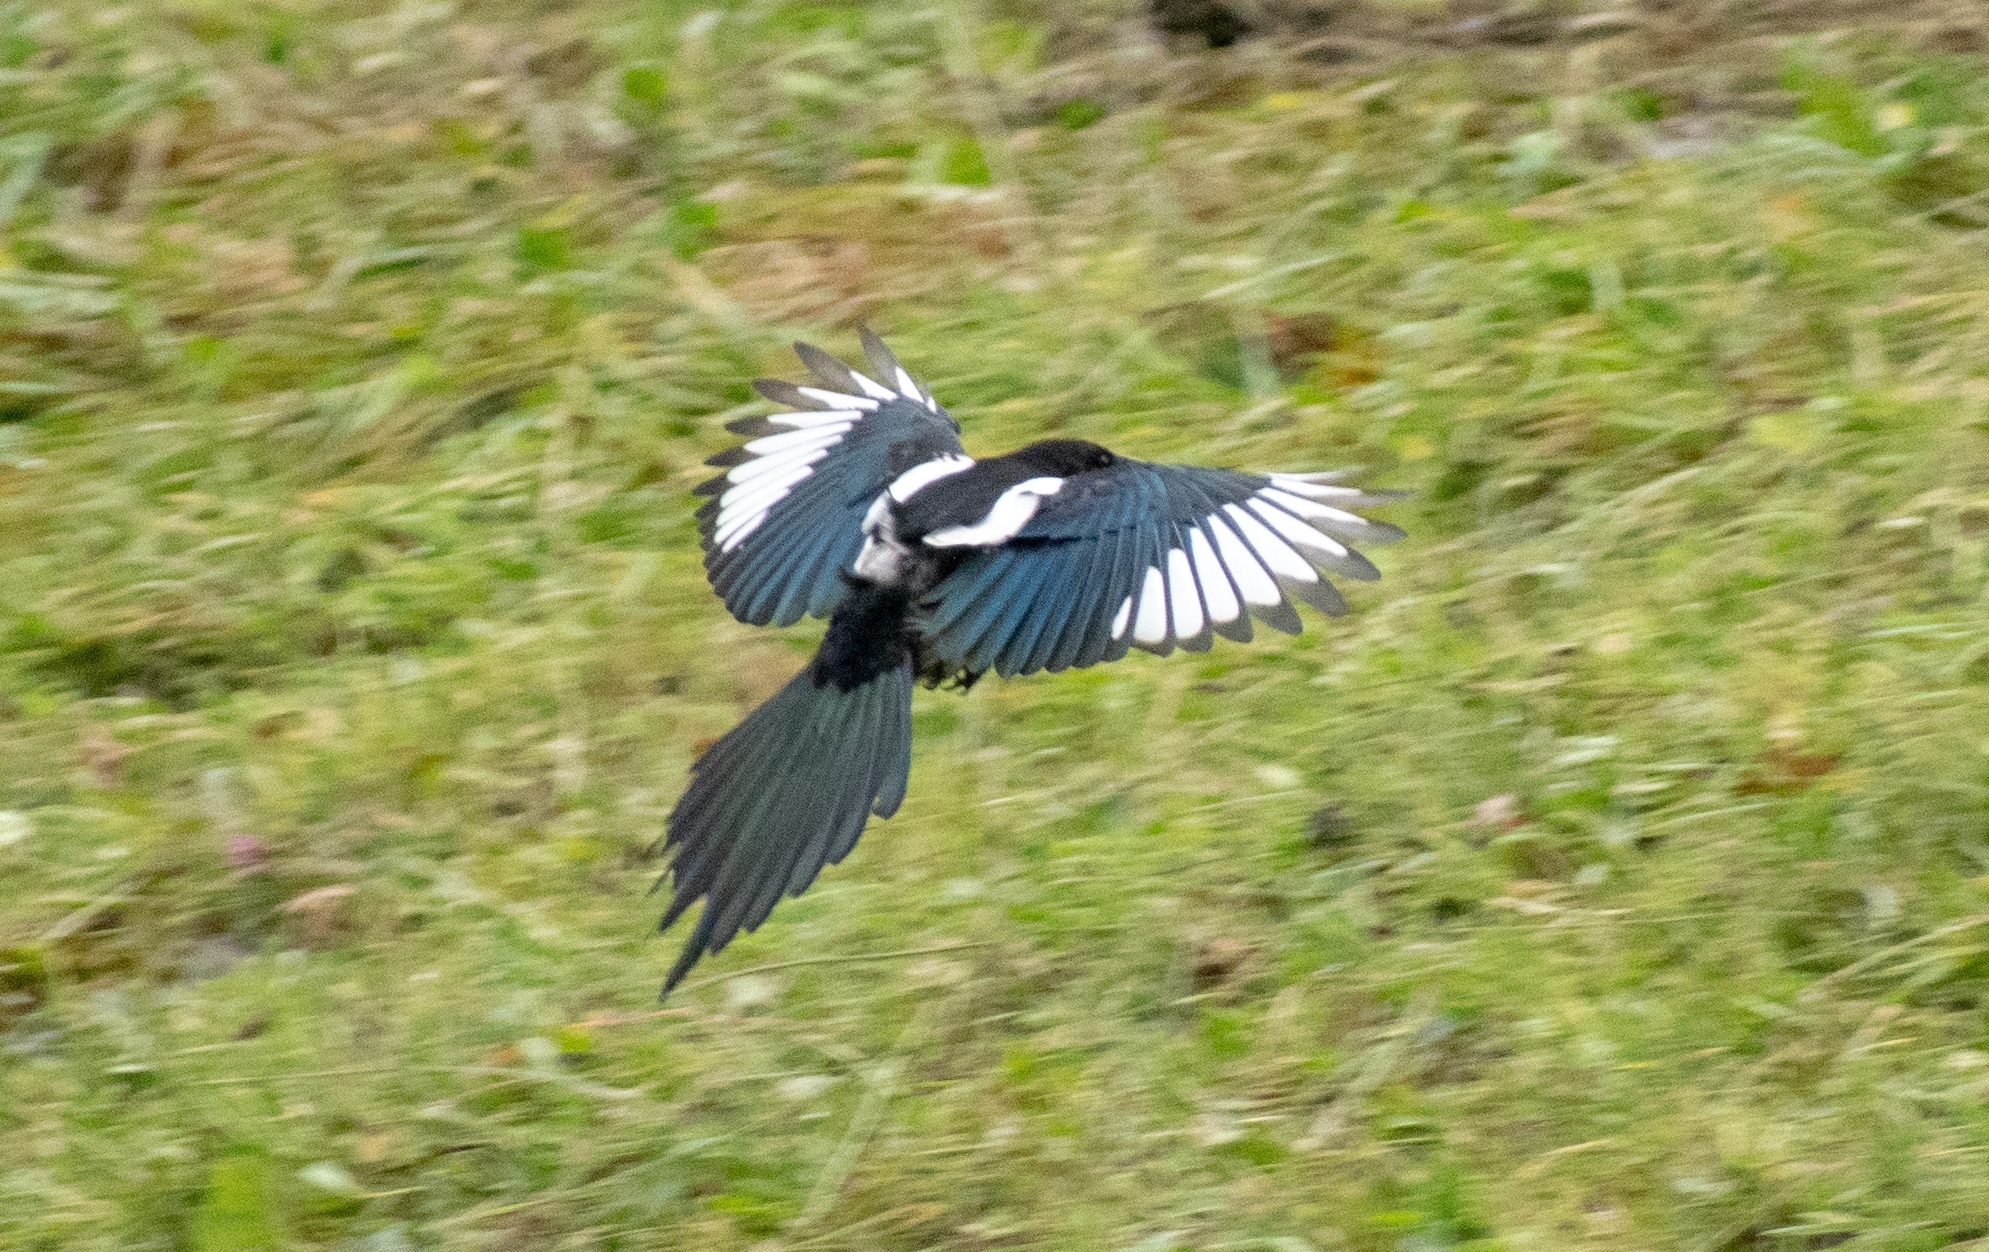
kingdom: Animalia
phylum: Chordata
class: Aves
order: Passeriformes
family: Corvidae
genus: Pica
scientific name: Pica pica
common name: Eurasian magpie
